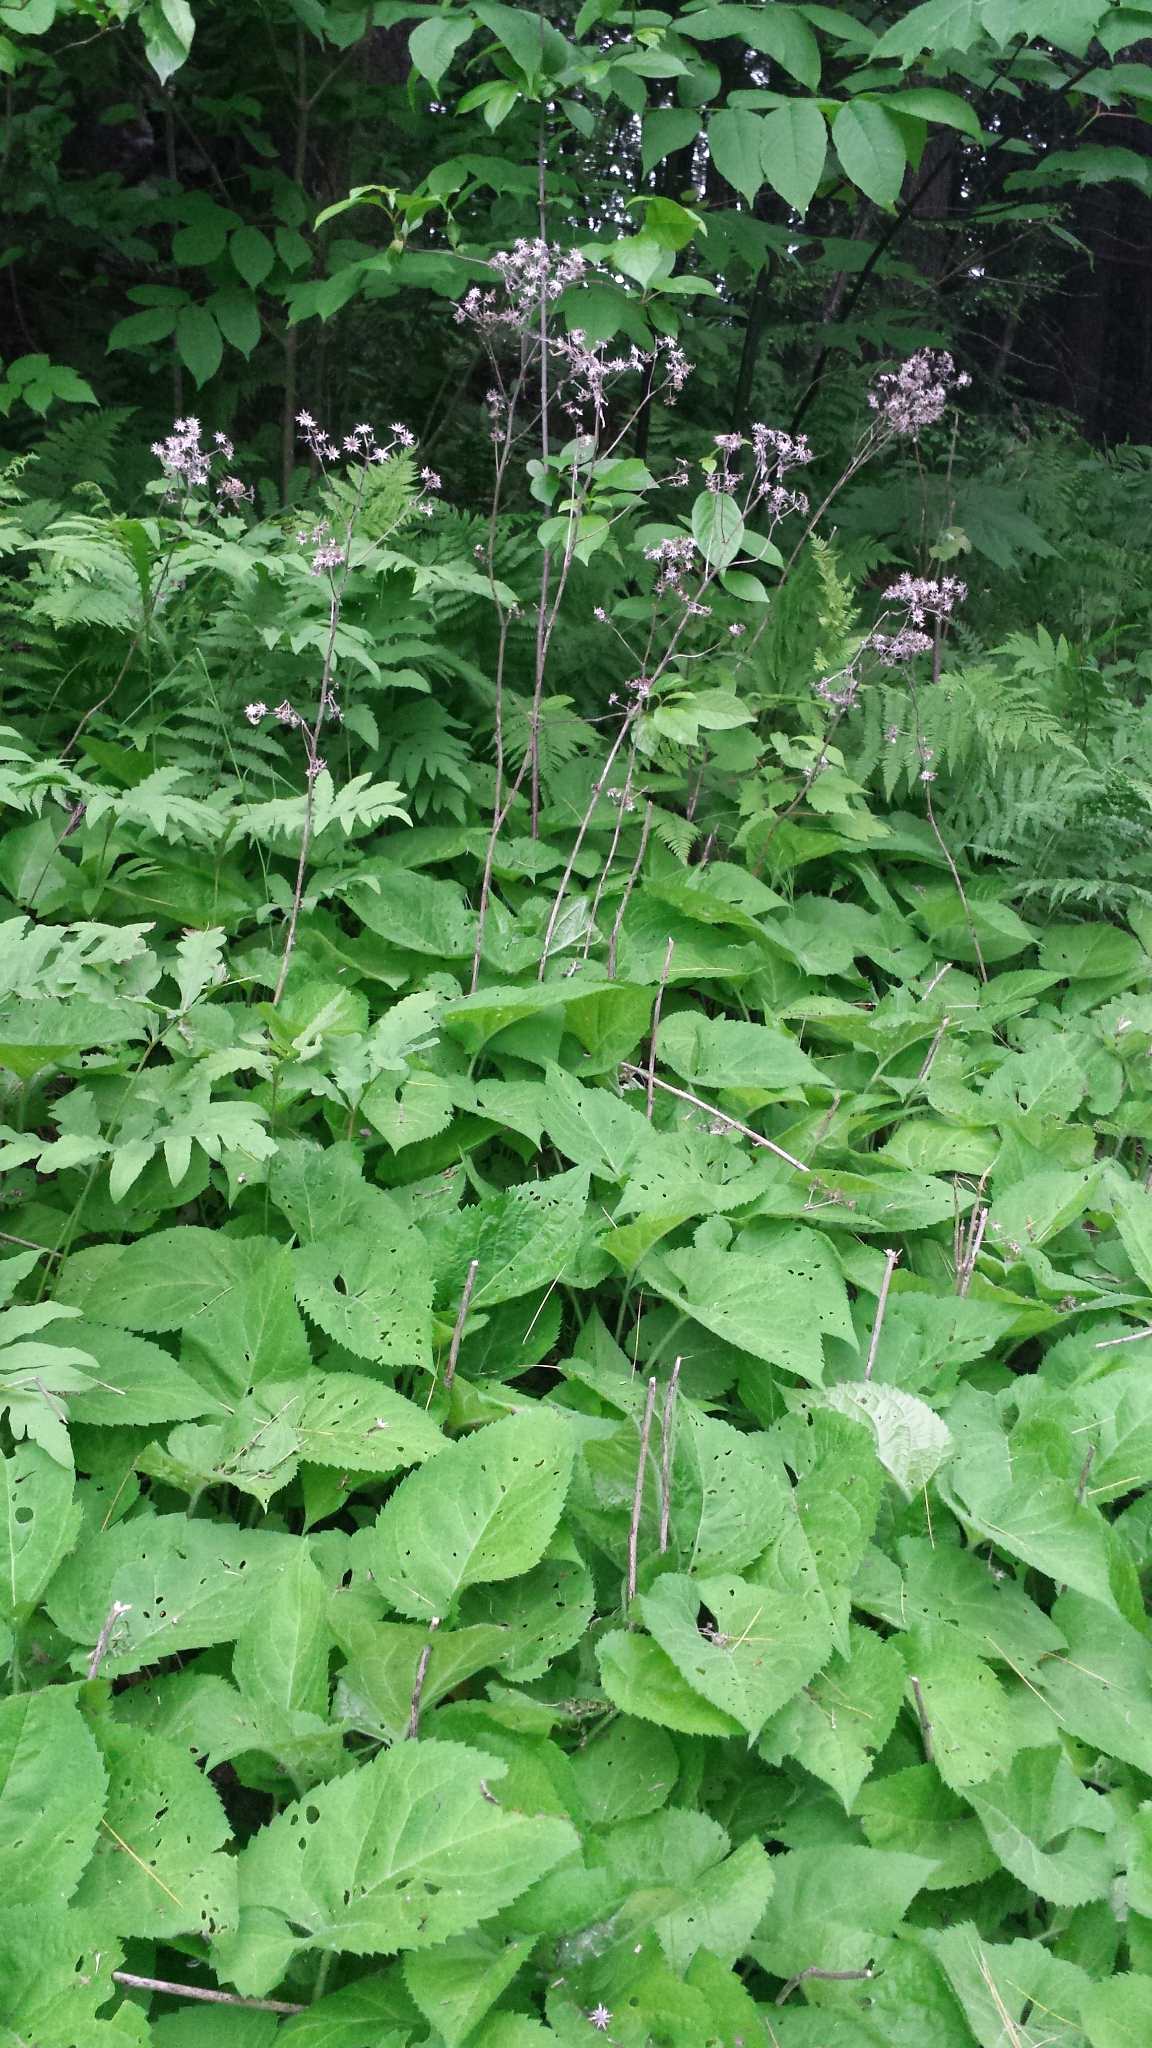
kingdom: Plantae
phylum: Tracheophyta
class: Magnoliopsida
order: Asterales
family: Asteraceae
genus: Eurybia
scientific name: Eurybia macrophylla
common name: Big-leaved aster
